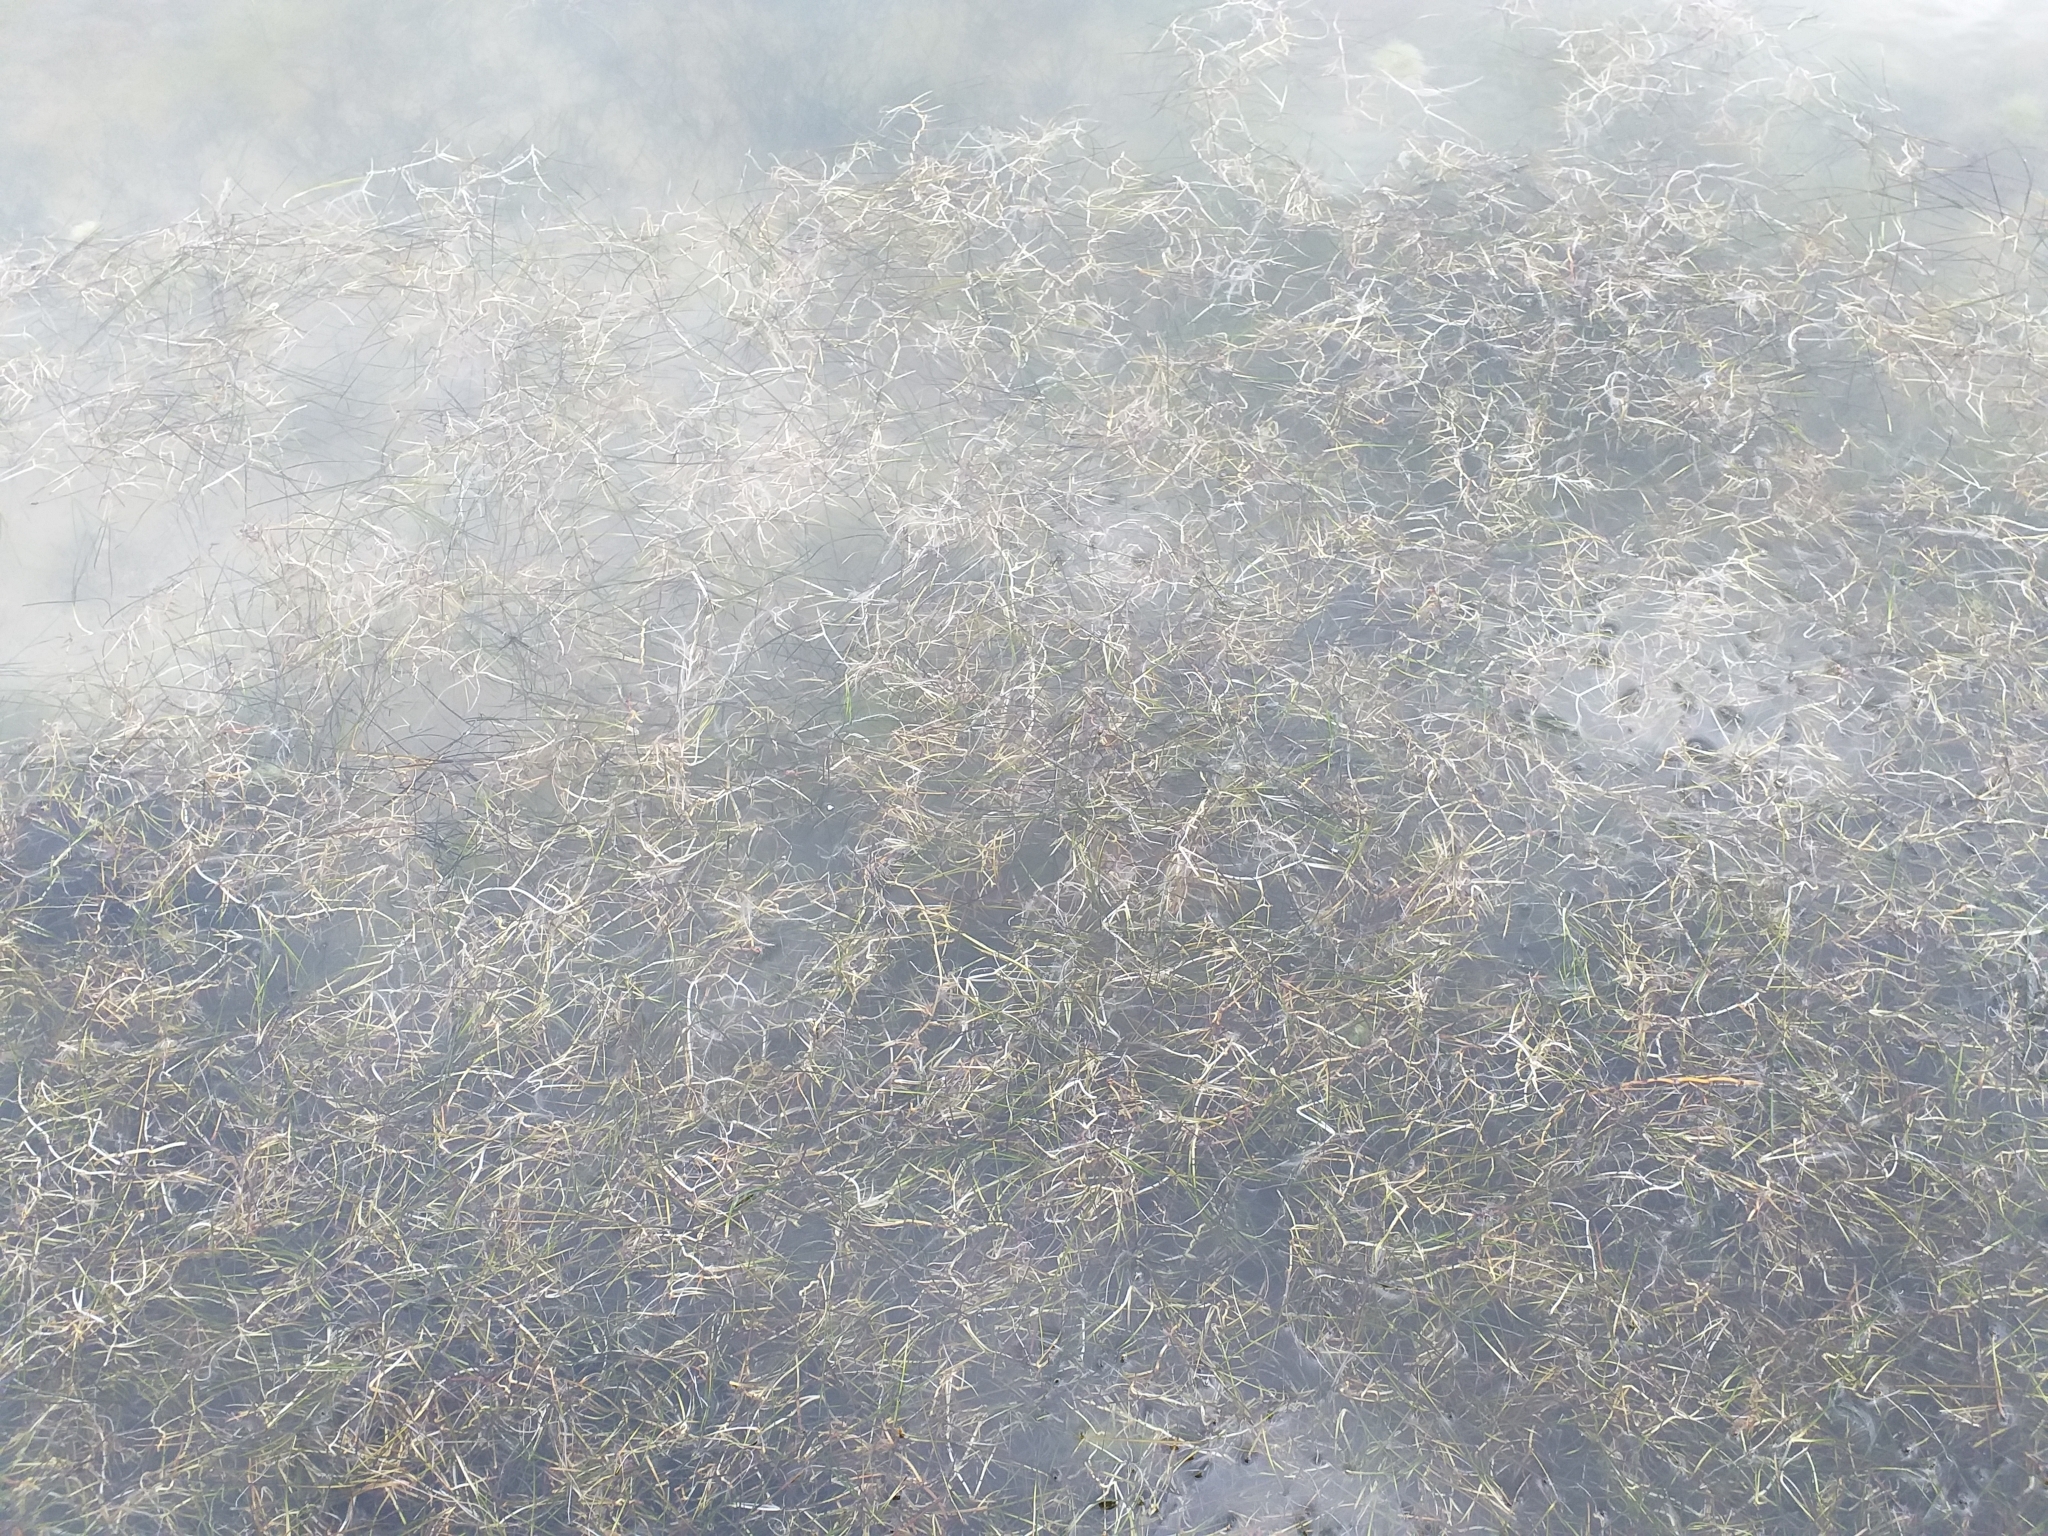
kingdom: Plantae
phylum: Tracheophyta
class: Liliopsida
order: Alismatales
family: Ruppiaceae
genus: Ruppia
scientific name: Ruppia drepanensis
